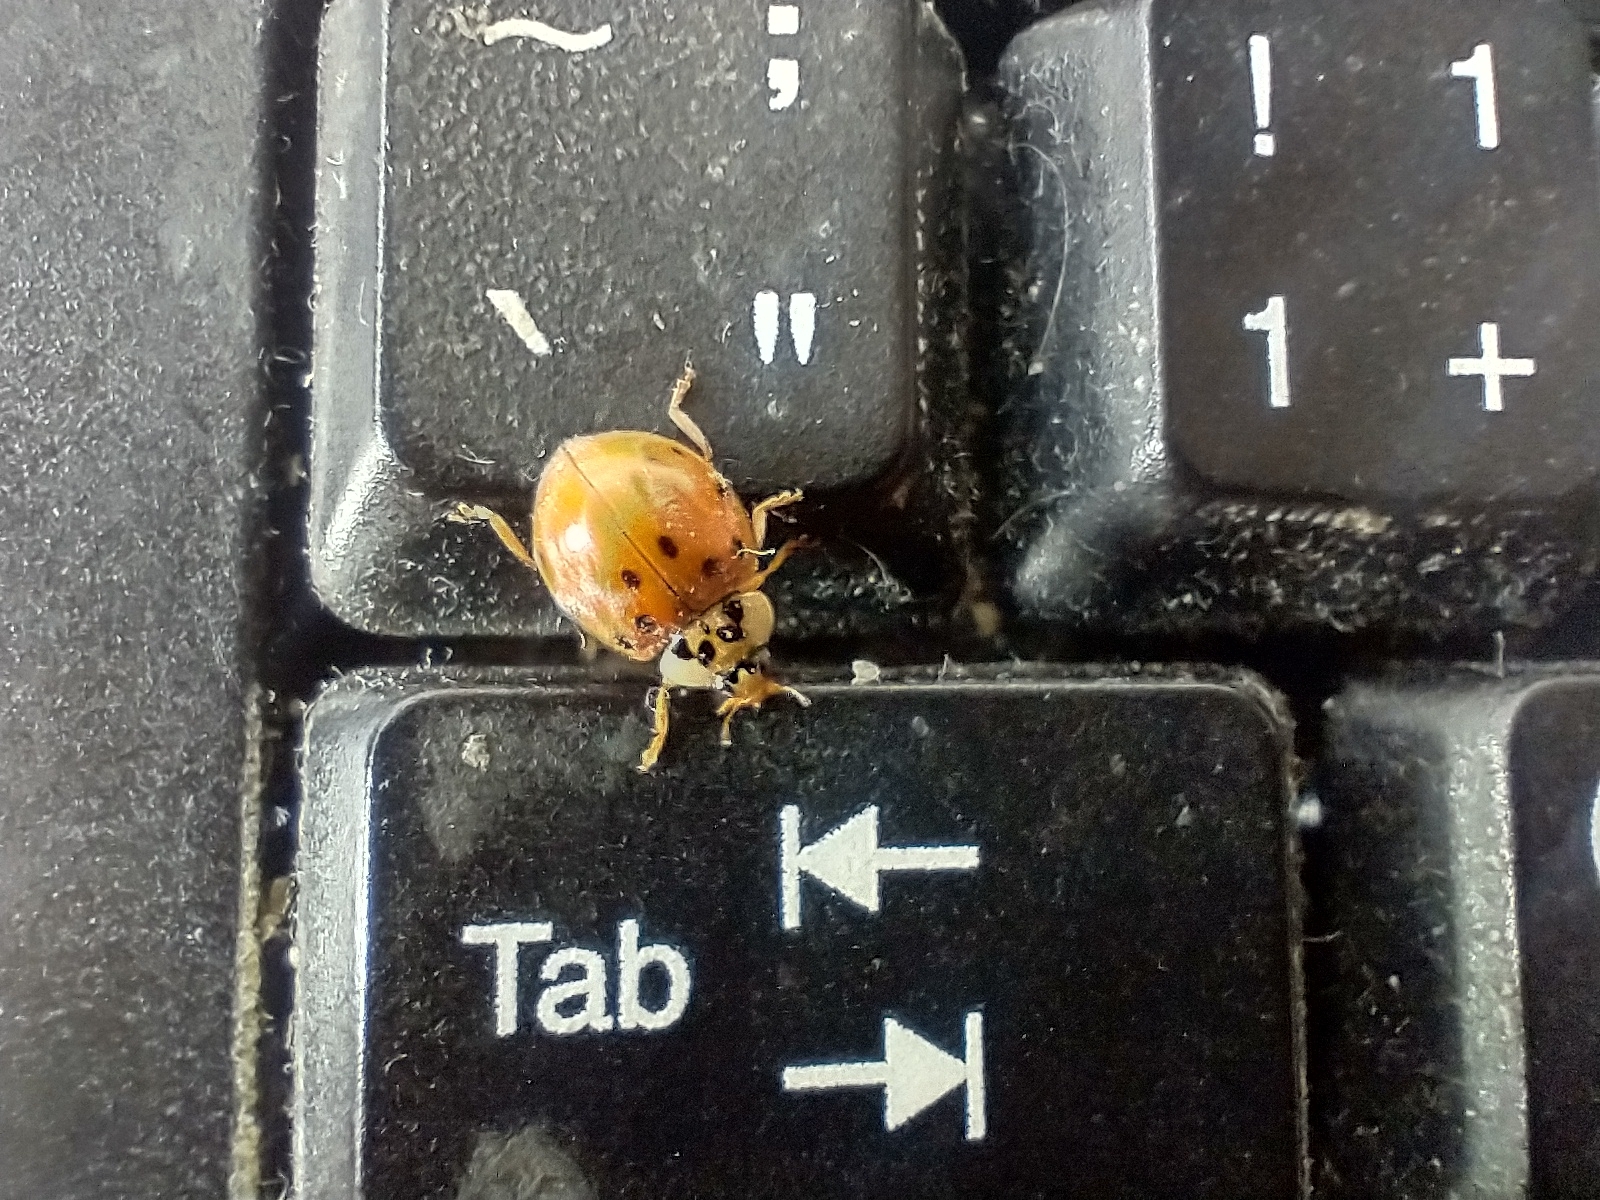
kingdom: Animalia
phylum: Arthropoda
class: Insecta
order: Coleoptera
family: Coccinellidae
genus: Harmonia
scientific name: Harmonia axyridis
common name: Harlequin ladybird
